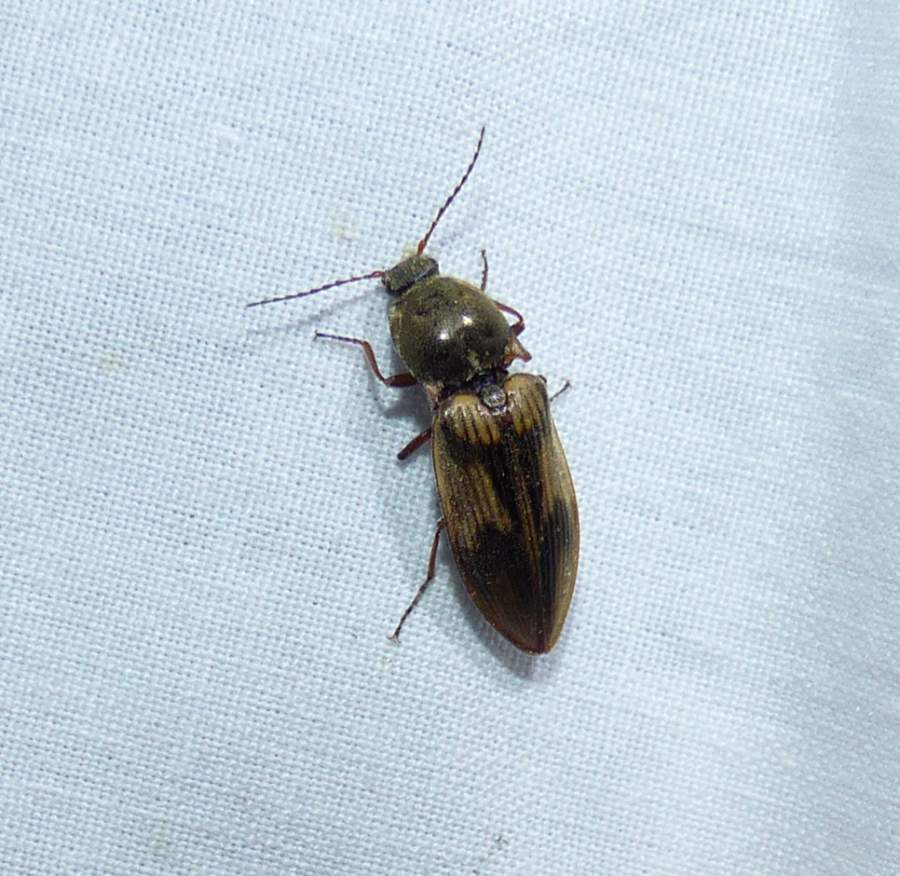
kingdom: Animalia
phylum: Arthropoda
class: Insecta
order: Coleoptera
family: Elateridae
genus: Stropenron
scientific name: Stropenron hieroglyphica
